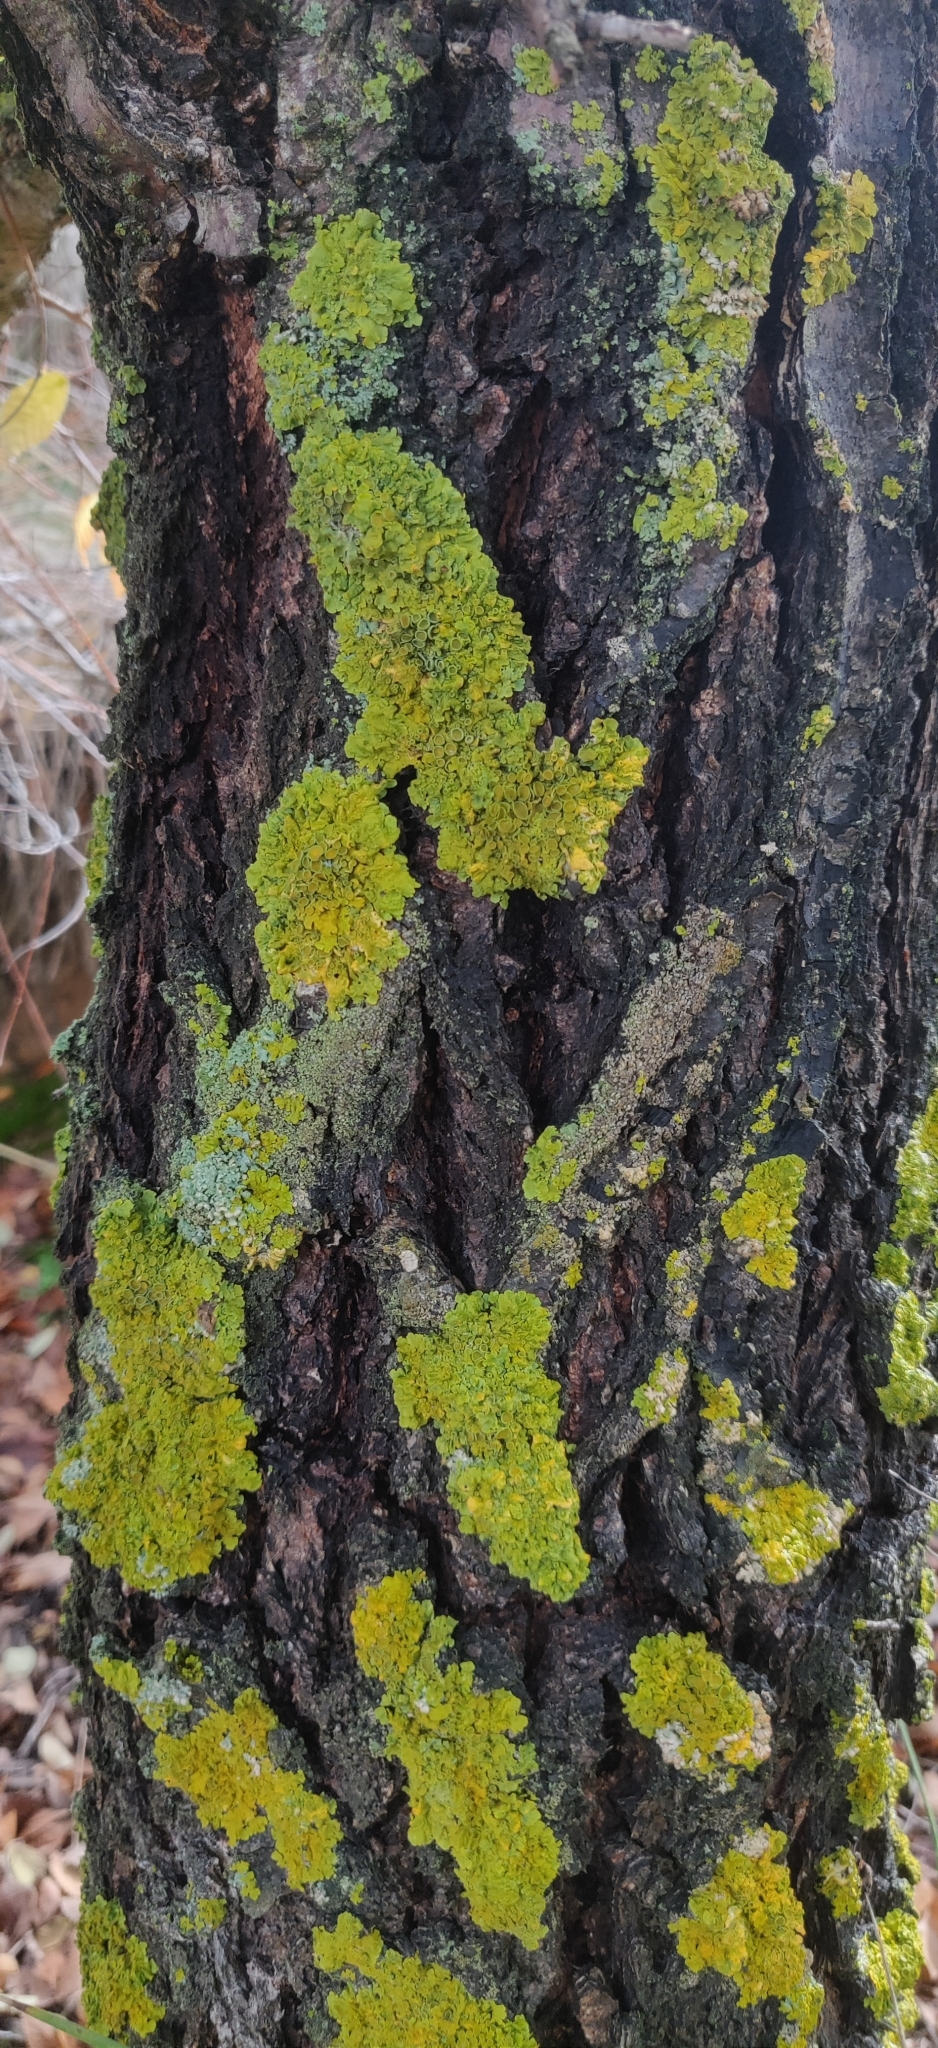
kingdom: Fungi
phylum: Ascomycota
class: Lecanoromycetes
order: Teloschistales
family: Teloschistaceae
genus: Xanthoria
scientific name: Xanthoria parietina
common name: Common orange lichen
